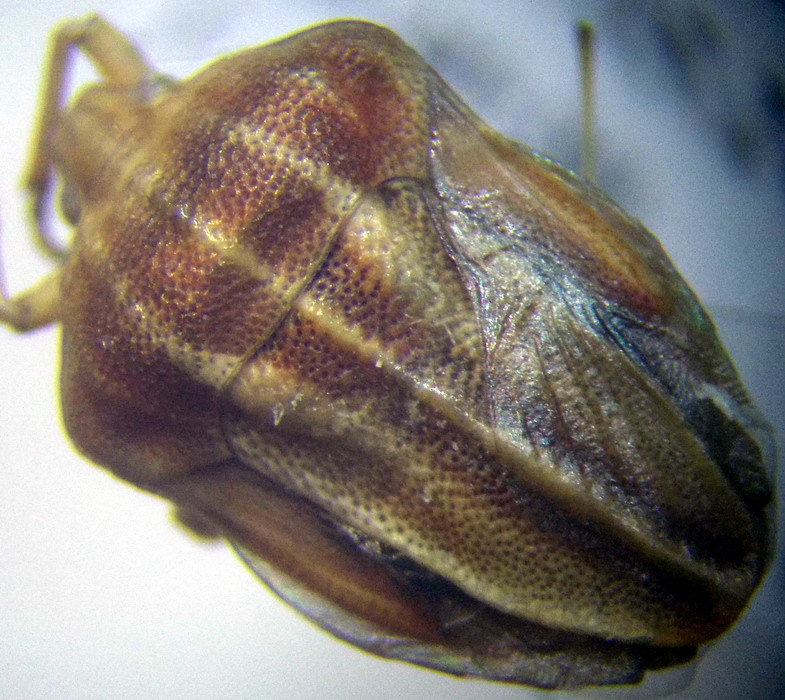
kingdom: Animalia
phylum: Arthropoda
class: Insecta
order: Hemiptera
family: Pentatomidae
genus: Tholagmus
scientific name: Tholagmus flavolineatus
